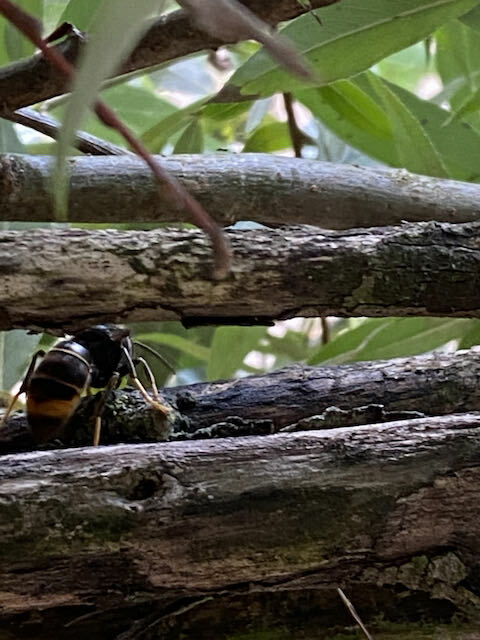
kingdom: Animalia
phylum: Arthropoda
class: Insecta
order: Hymenoptera
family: Vespidae
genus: Vespa
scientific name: Vespa velutina
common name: Asian hornet
